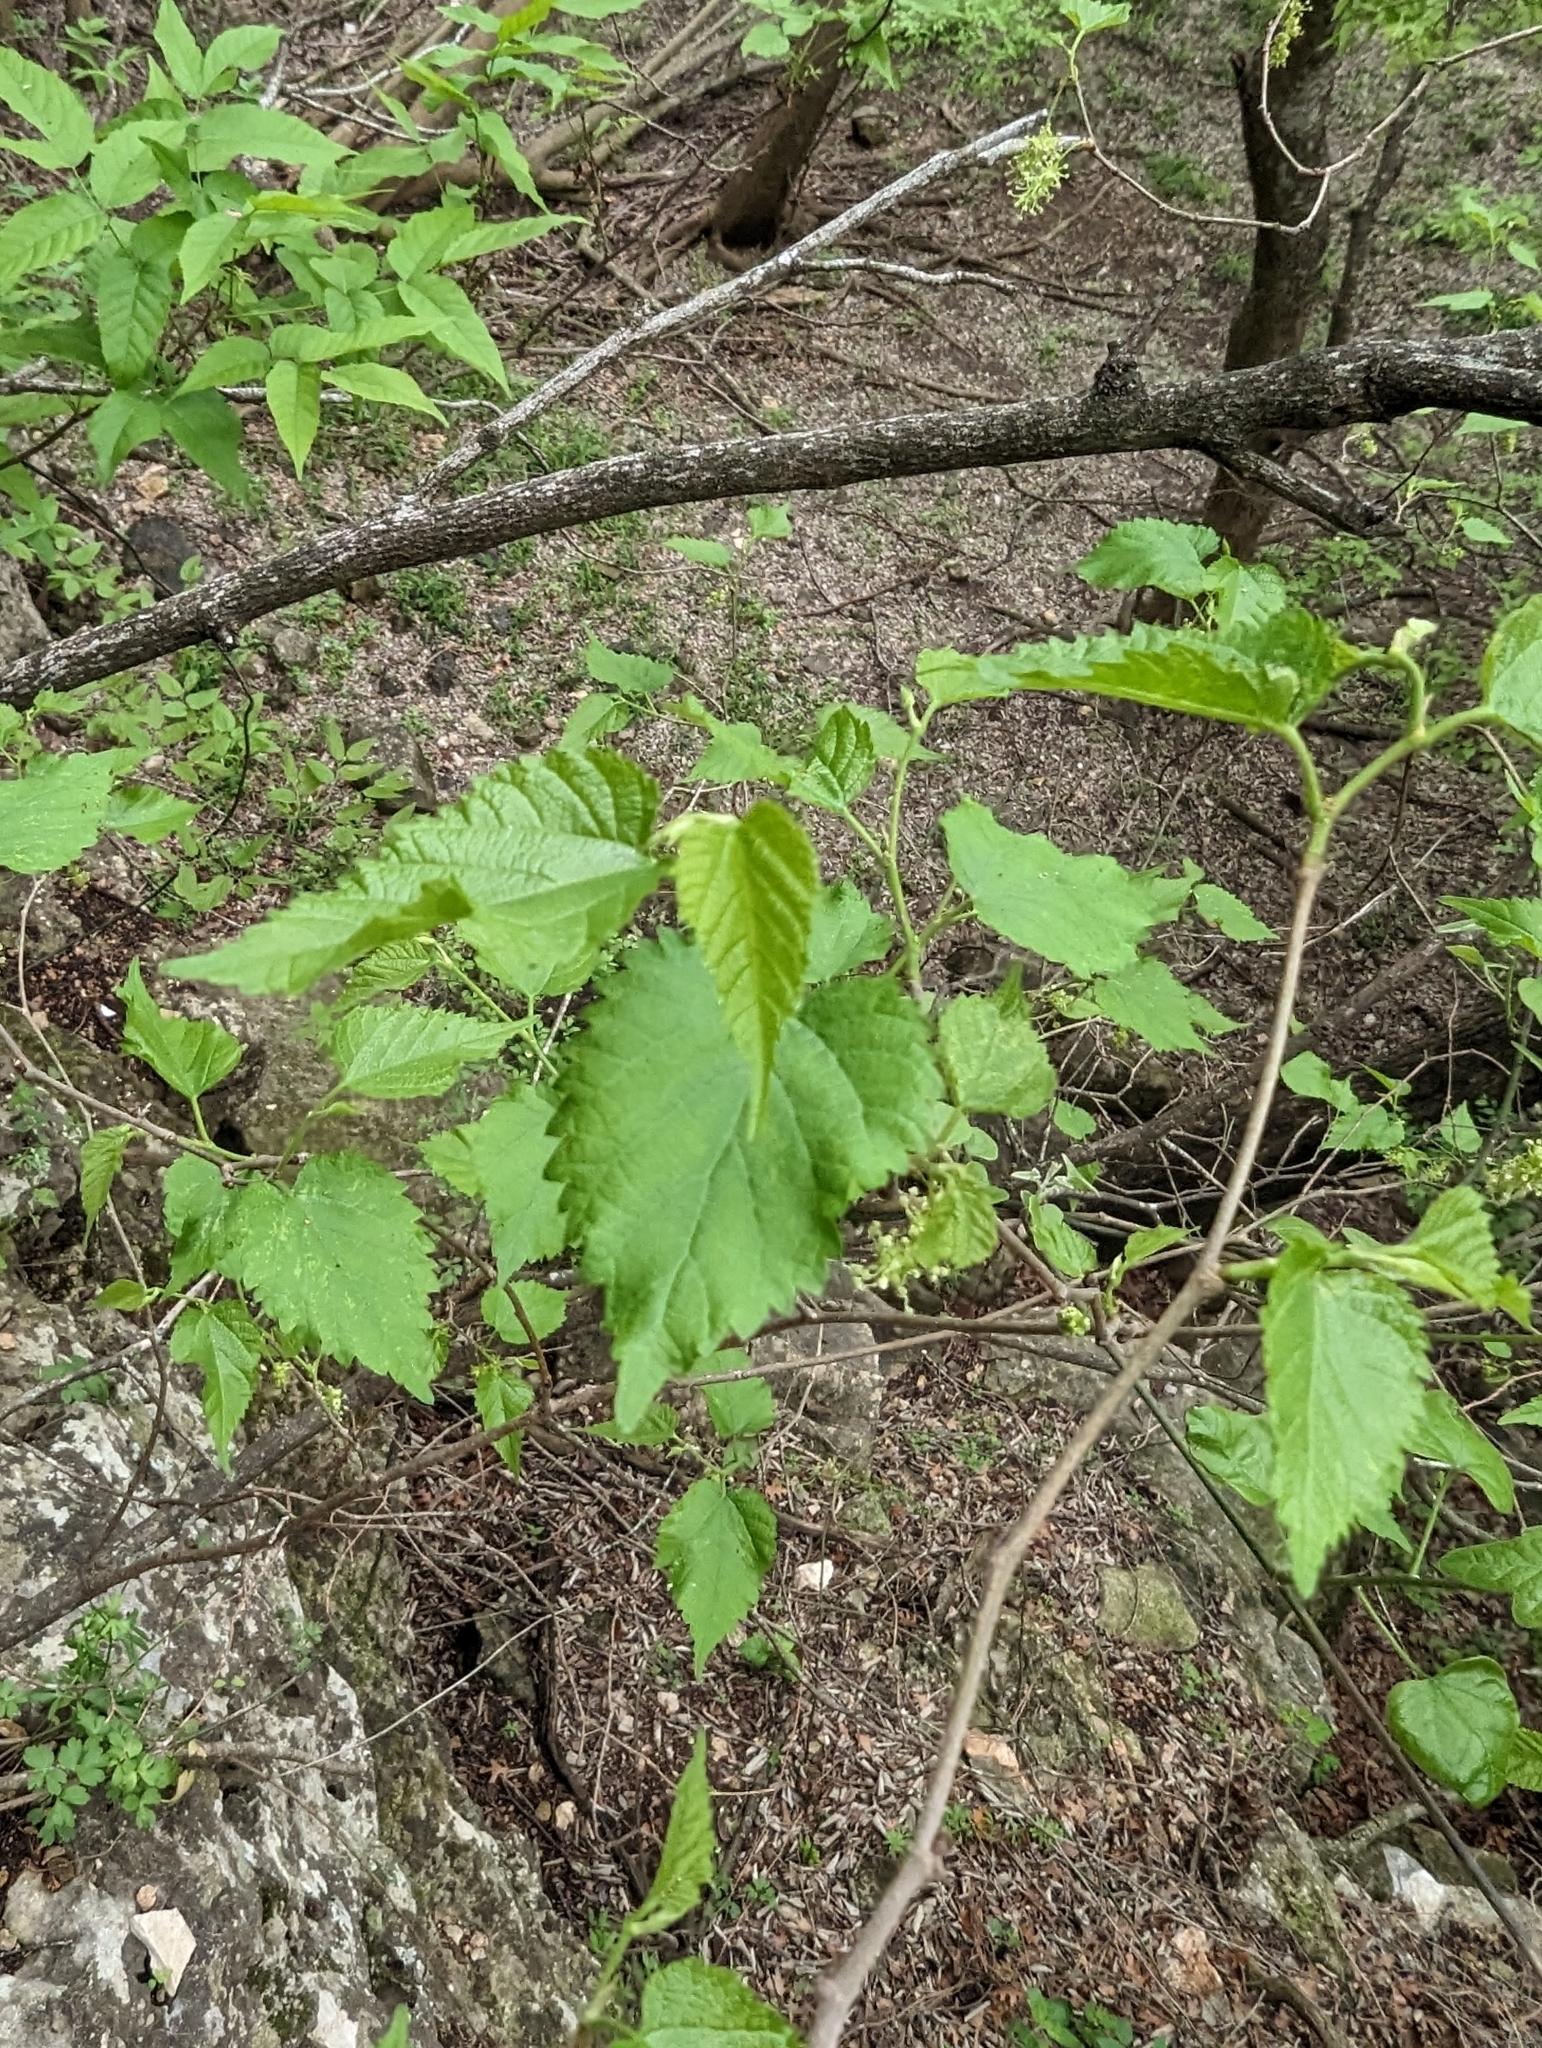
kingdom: Plantae
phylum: Tracheophyta
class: Magnoliopsida
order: Rosales
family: Moraceae
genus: Morus
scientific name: Morus microphylla
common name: Mexican mulberry
